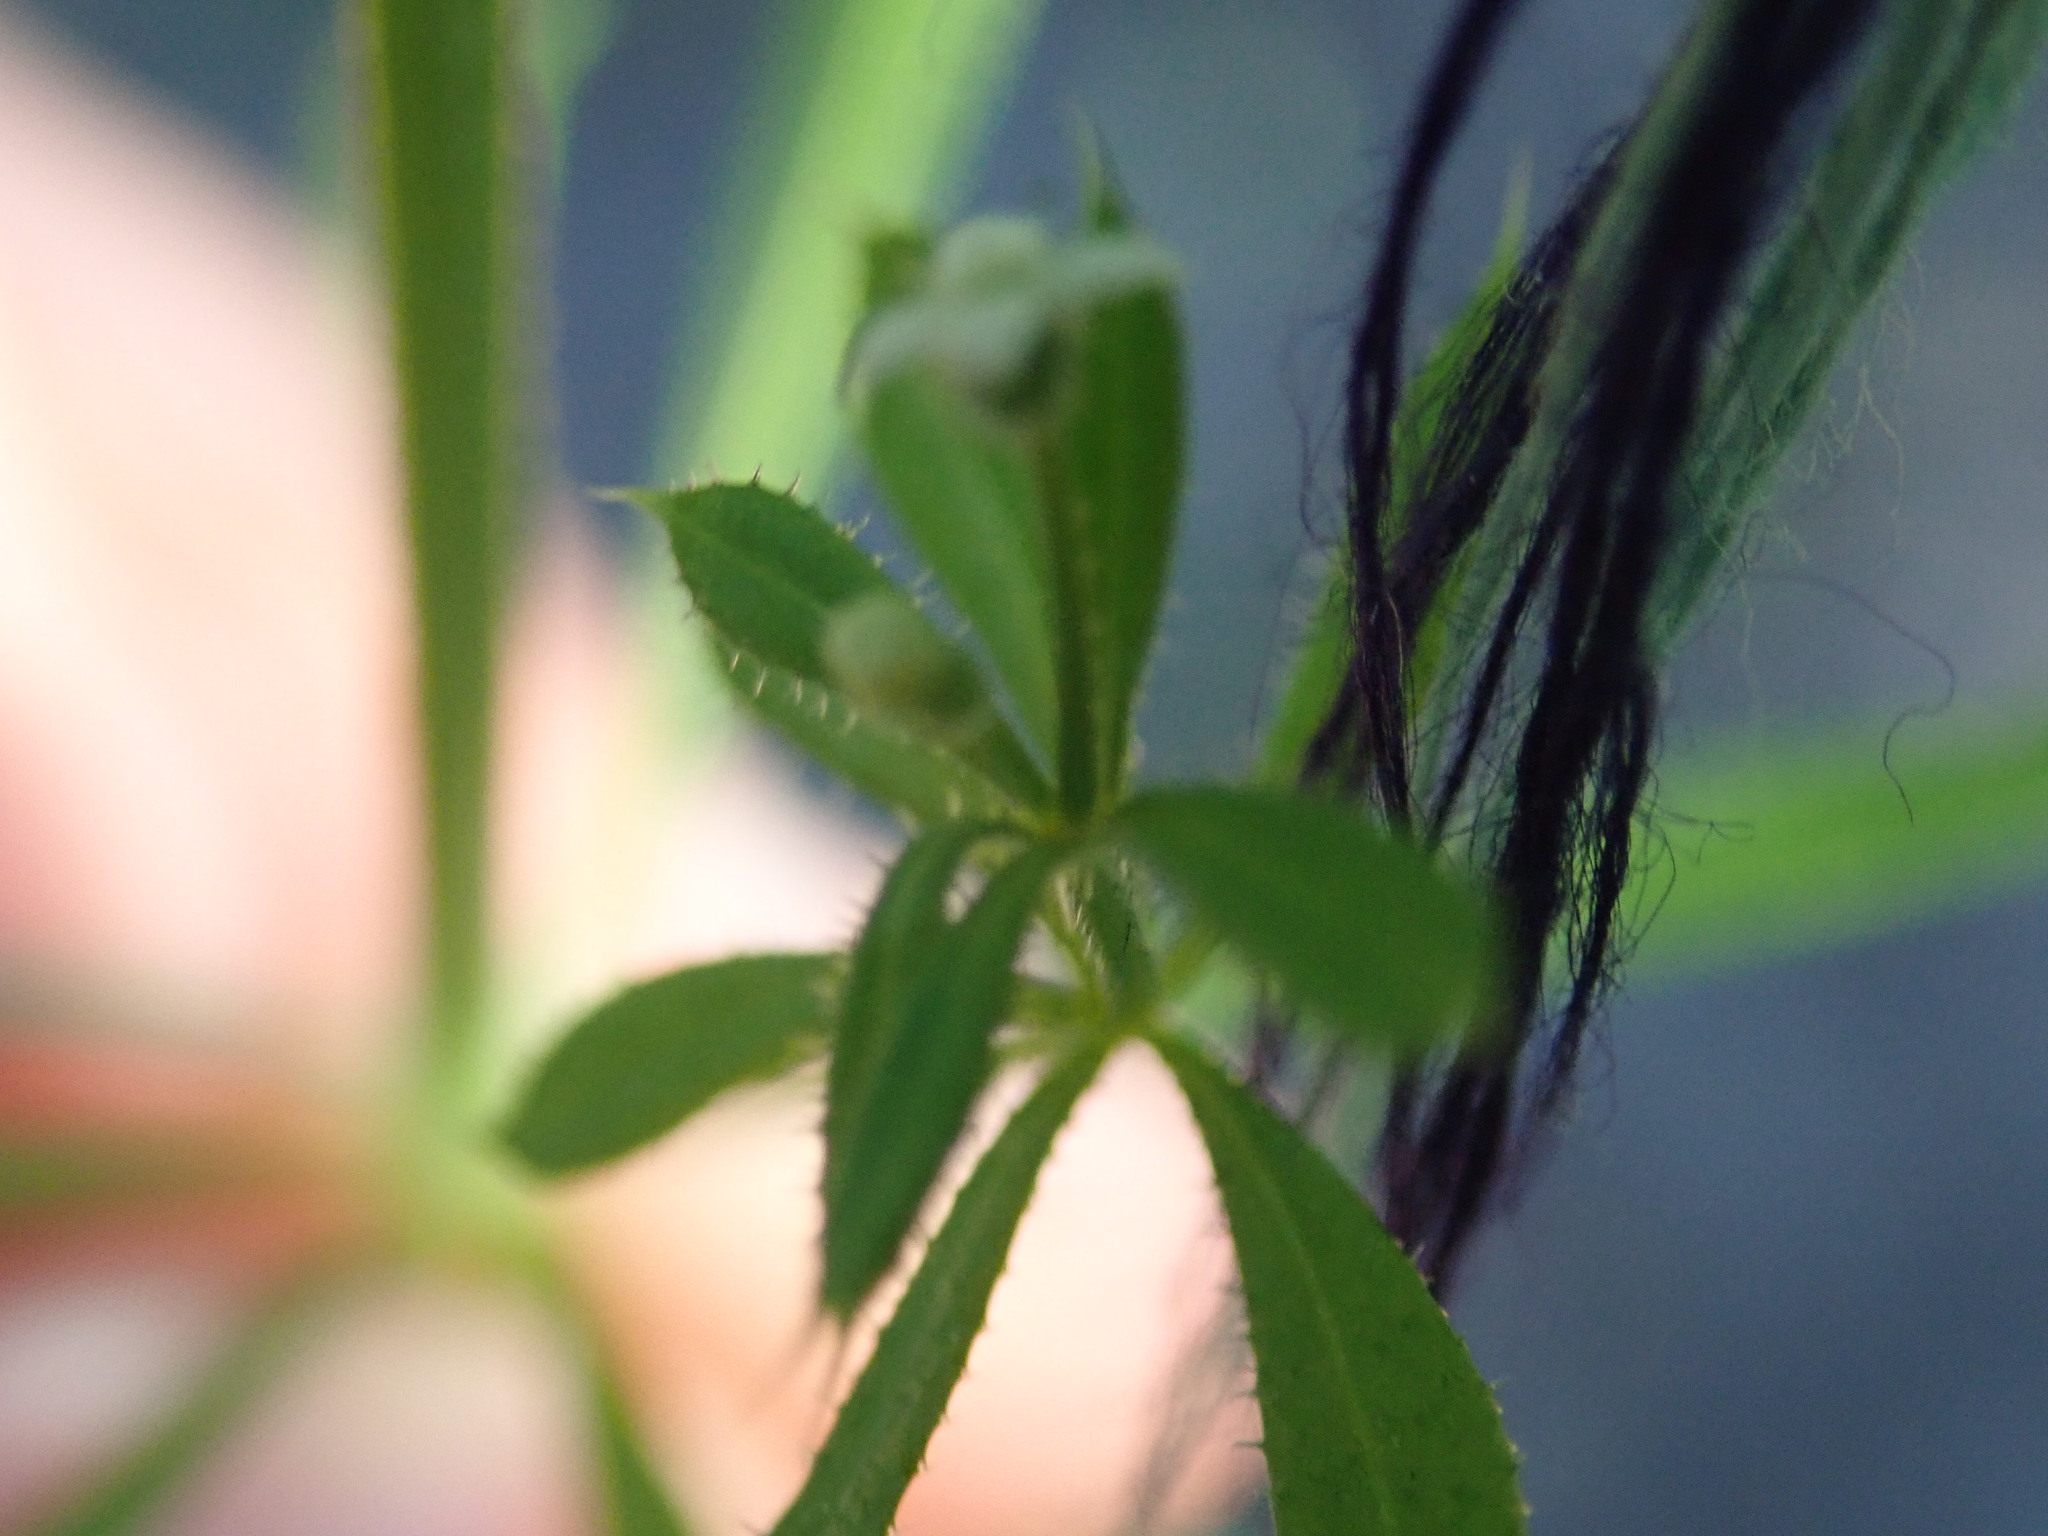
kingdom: Plantae
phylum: Tracheophyta
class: Magnoliopsida
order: Gentianales
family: Rubiaceae
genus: Galium
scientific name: Galium aparine
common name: Cleavers
